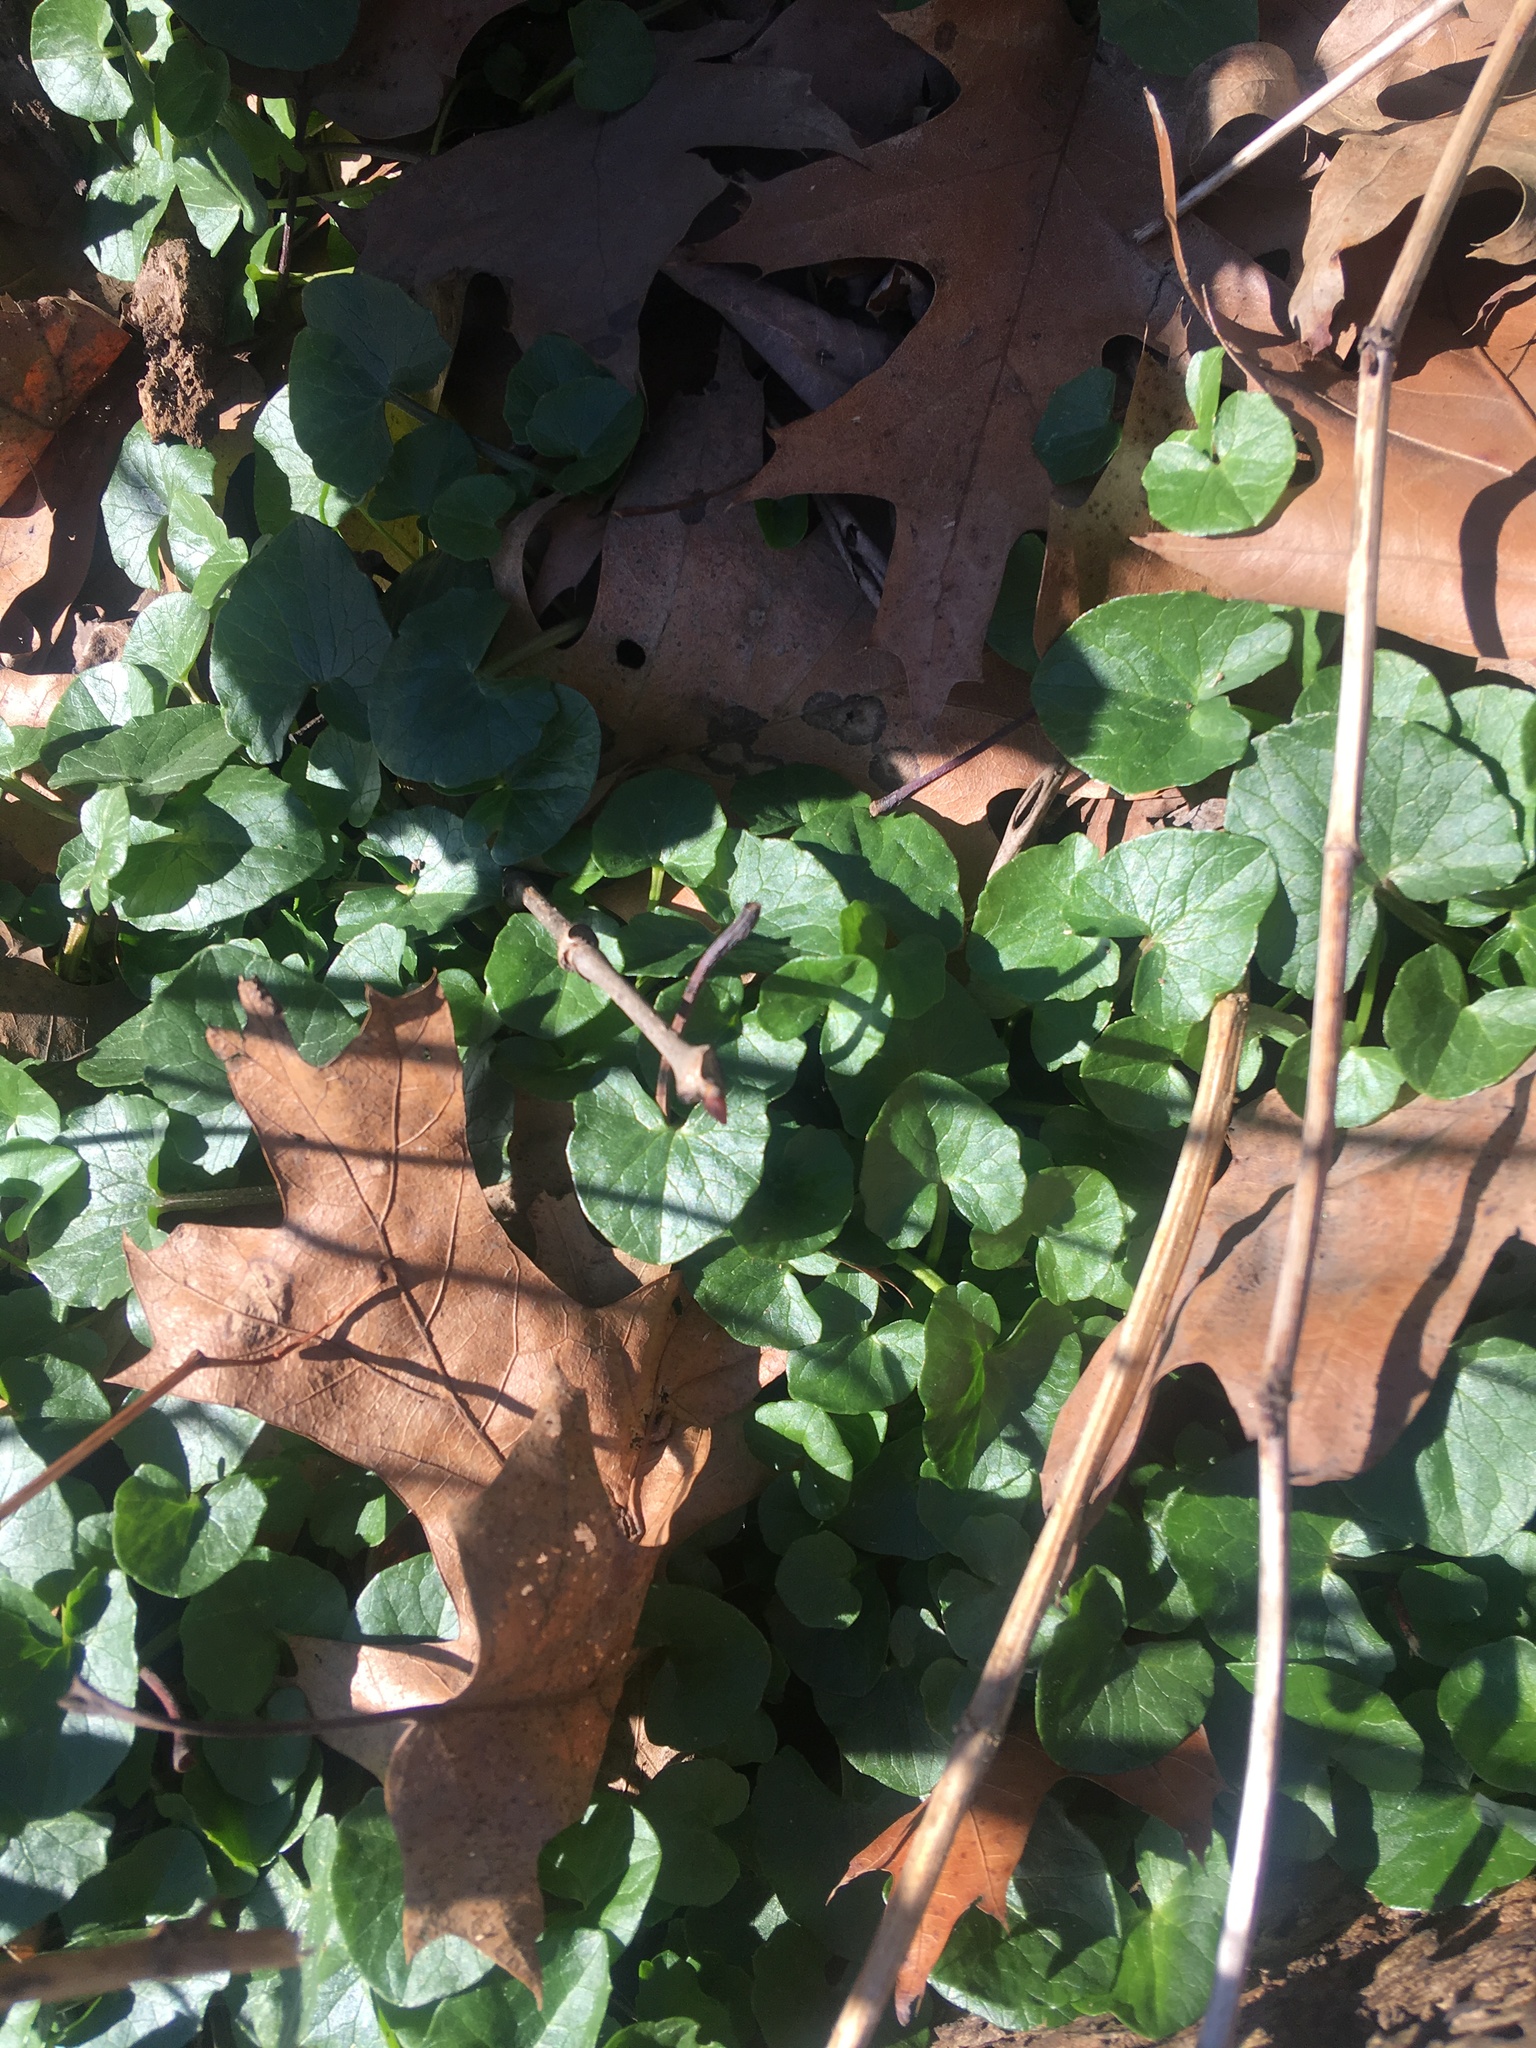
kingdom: Plantae
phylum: Tracheophyta
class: Magnoliopsida
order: Ranunculales
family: Ranunculaceae
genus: Ficaria
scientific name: Ficaria verna
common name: Lesser celandine
